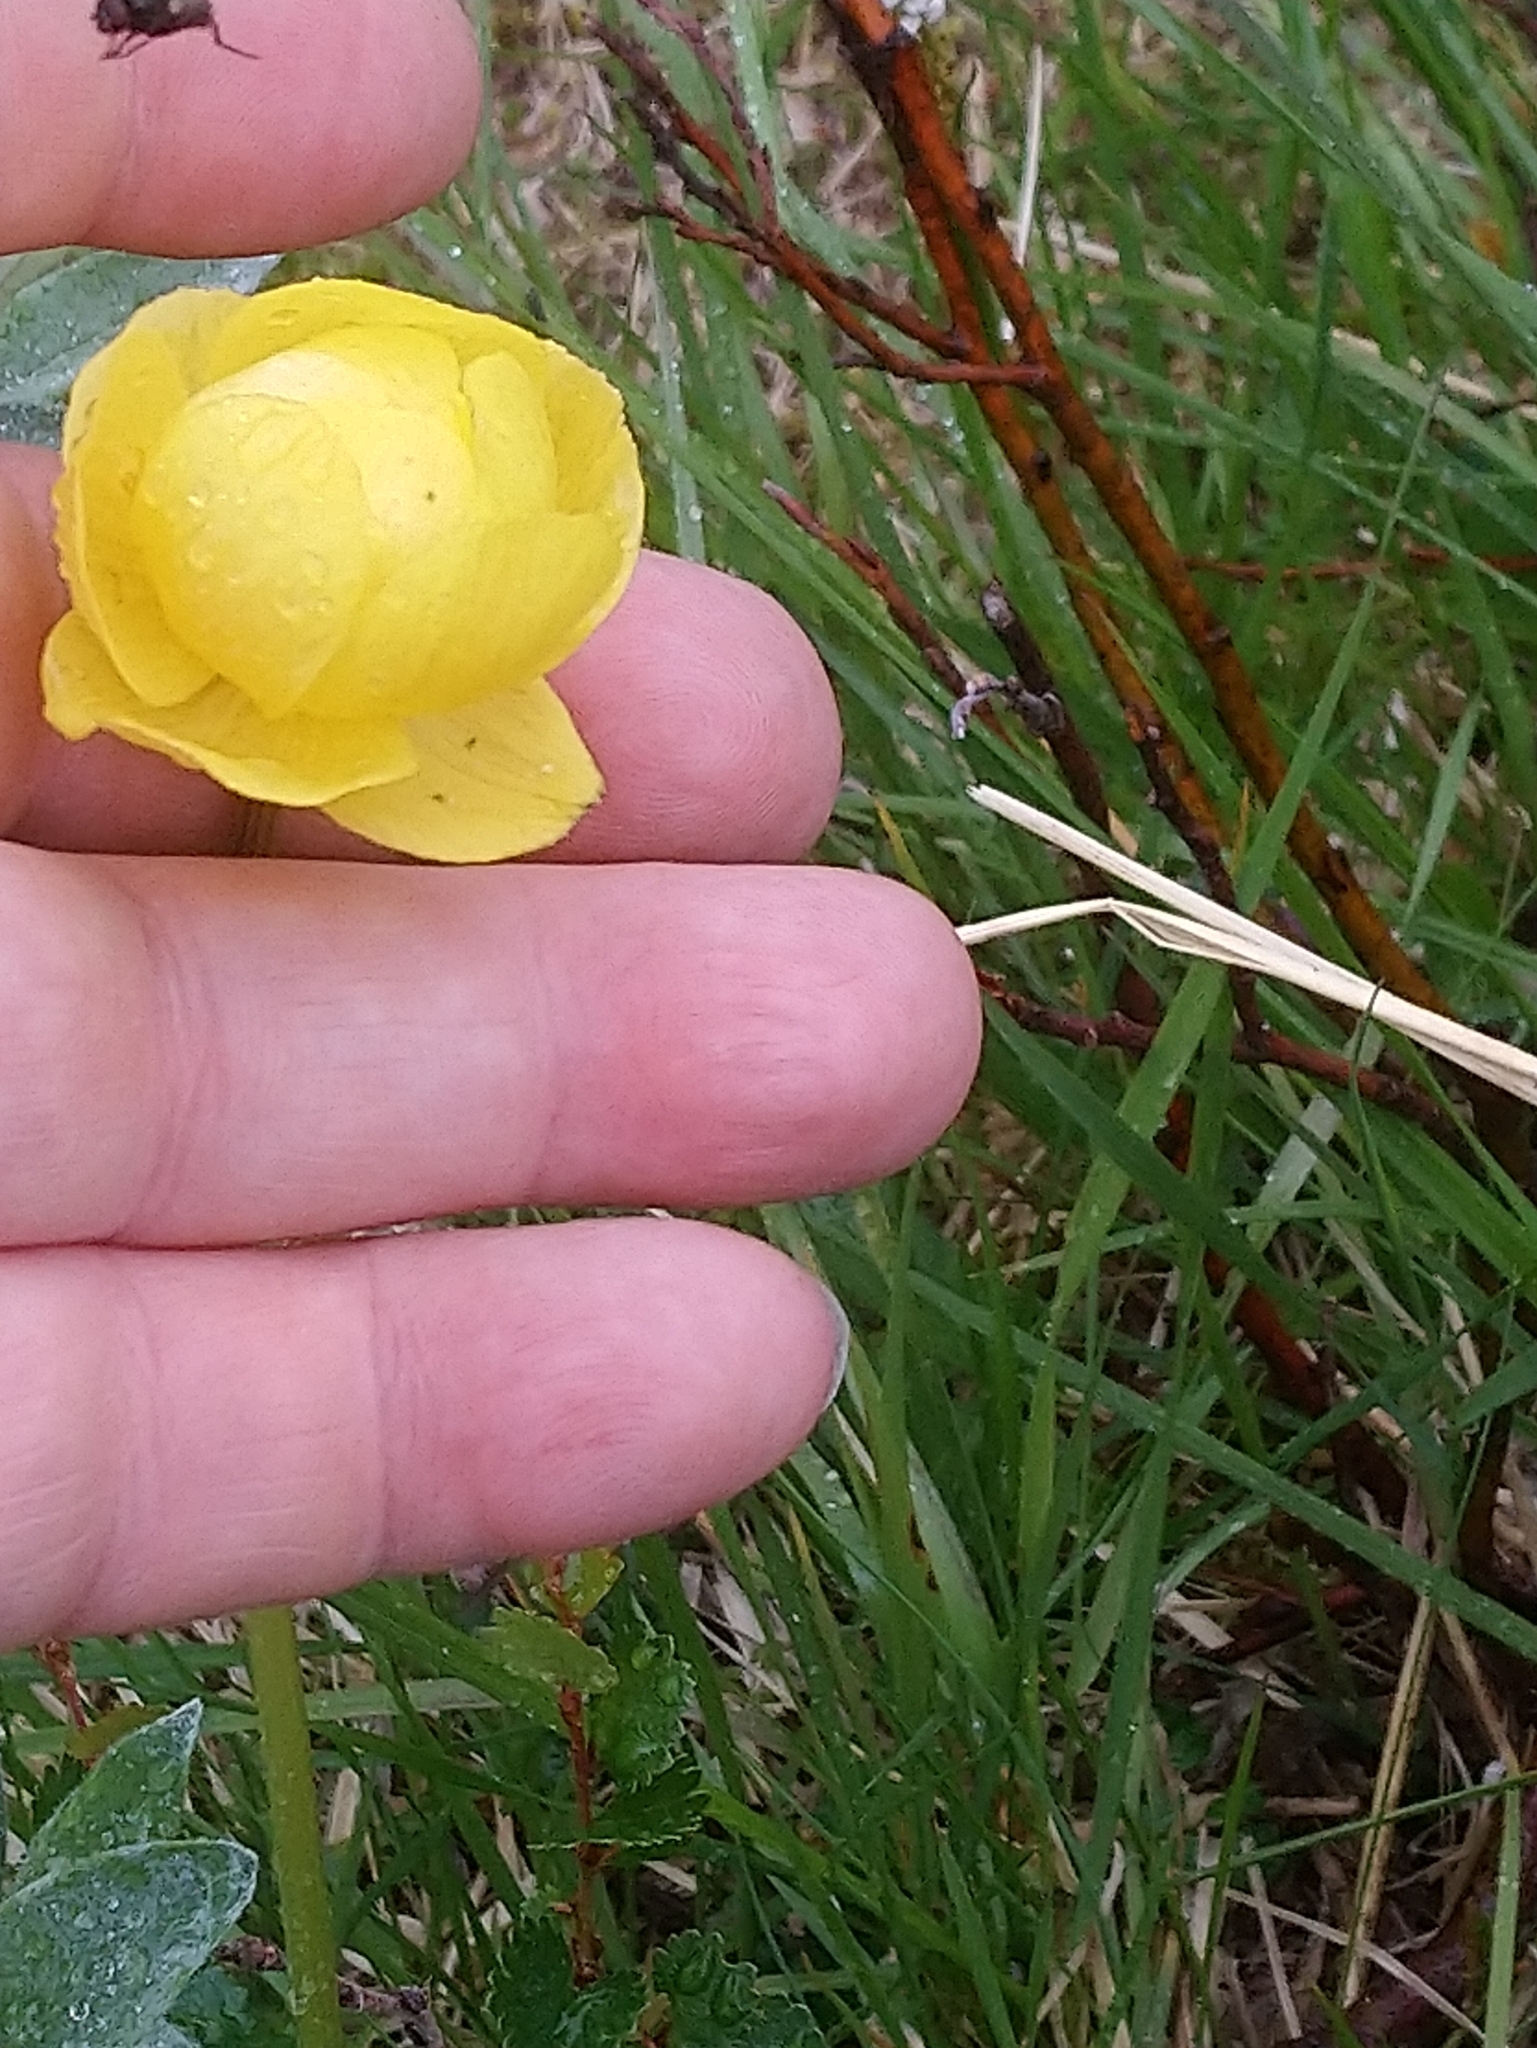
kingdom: Plantae
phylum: Tracheophyta
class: Magnoliopsida
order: Ranunculales
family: Ranunculaceae
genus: Trollius
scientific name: Trollius europaeus
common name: European globeflower
